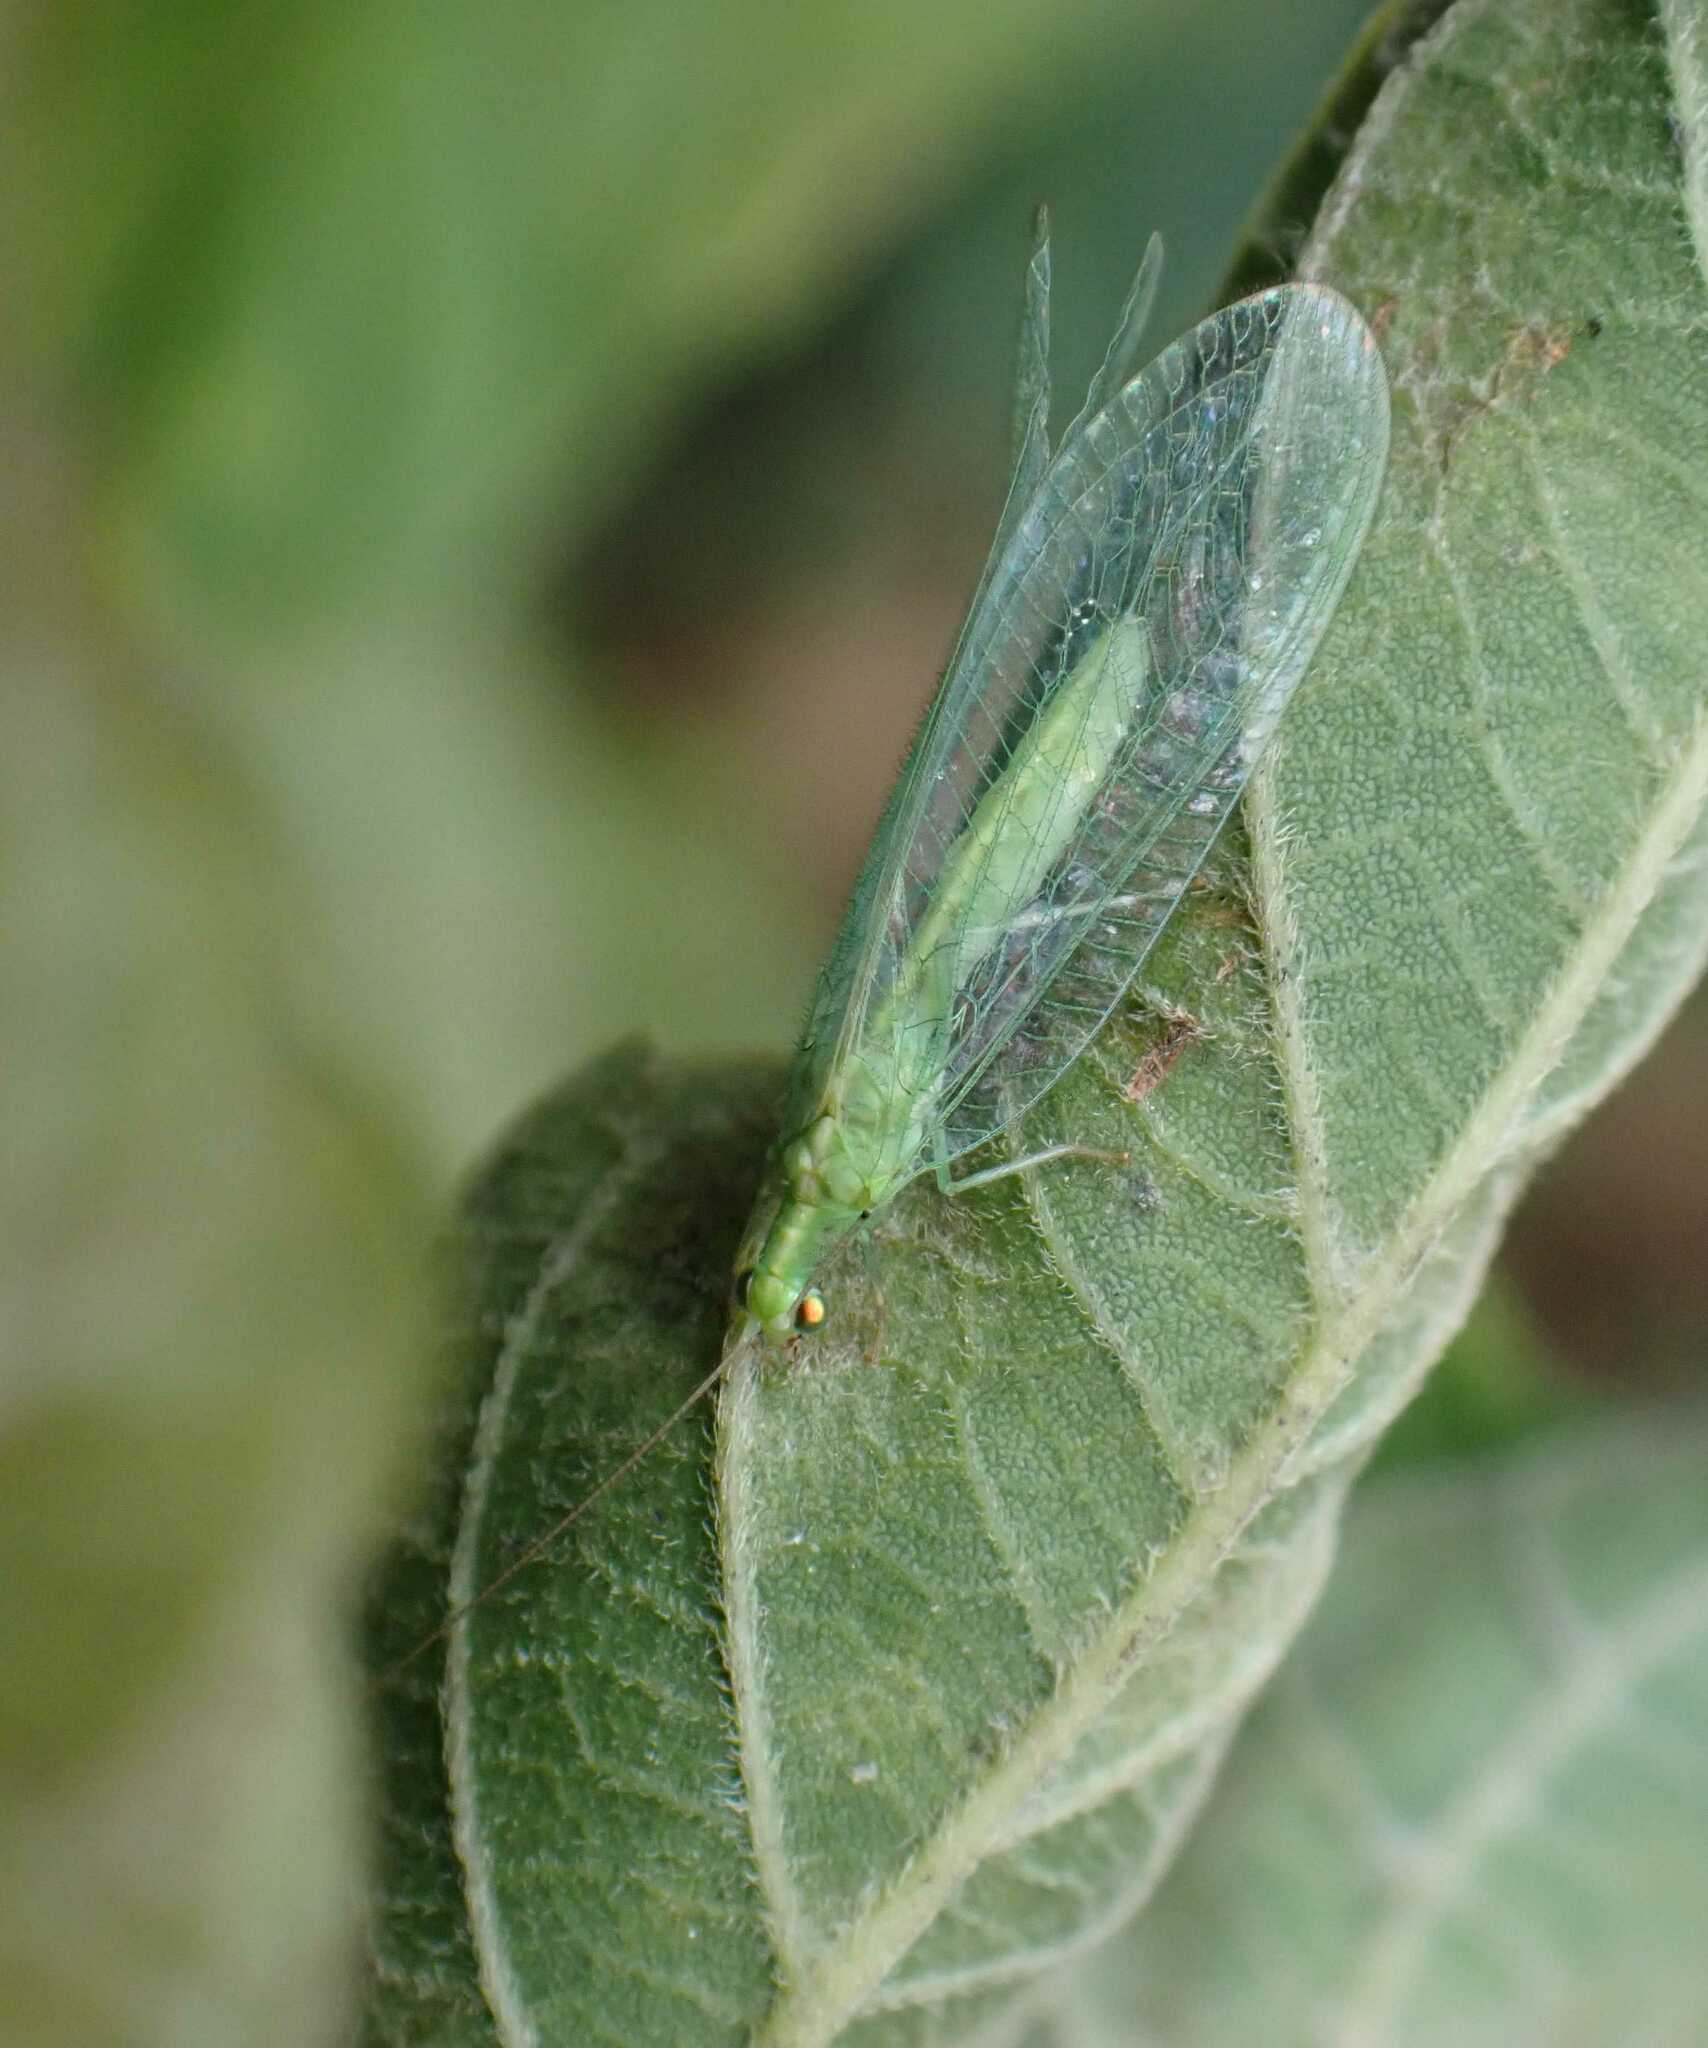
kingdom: Animalia
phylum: Arthropoda
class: Insecta
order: Neuroptera
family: Chrysopidae
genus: Chrysoperla
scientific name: Chrysoperla
